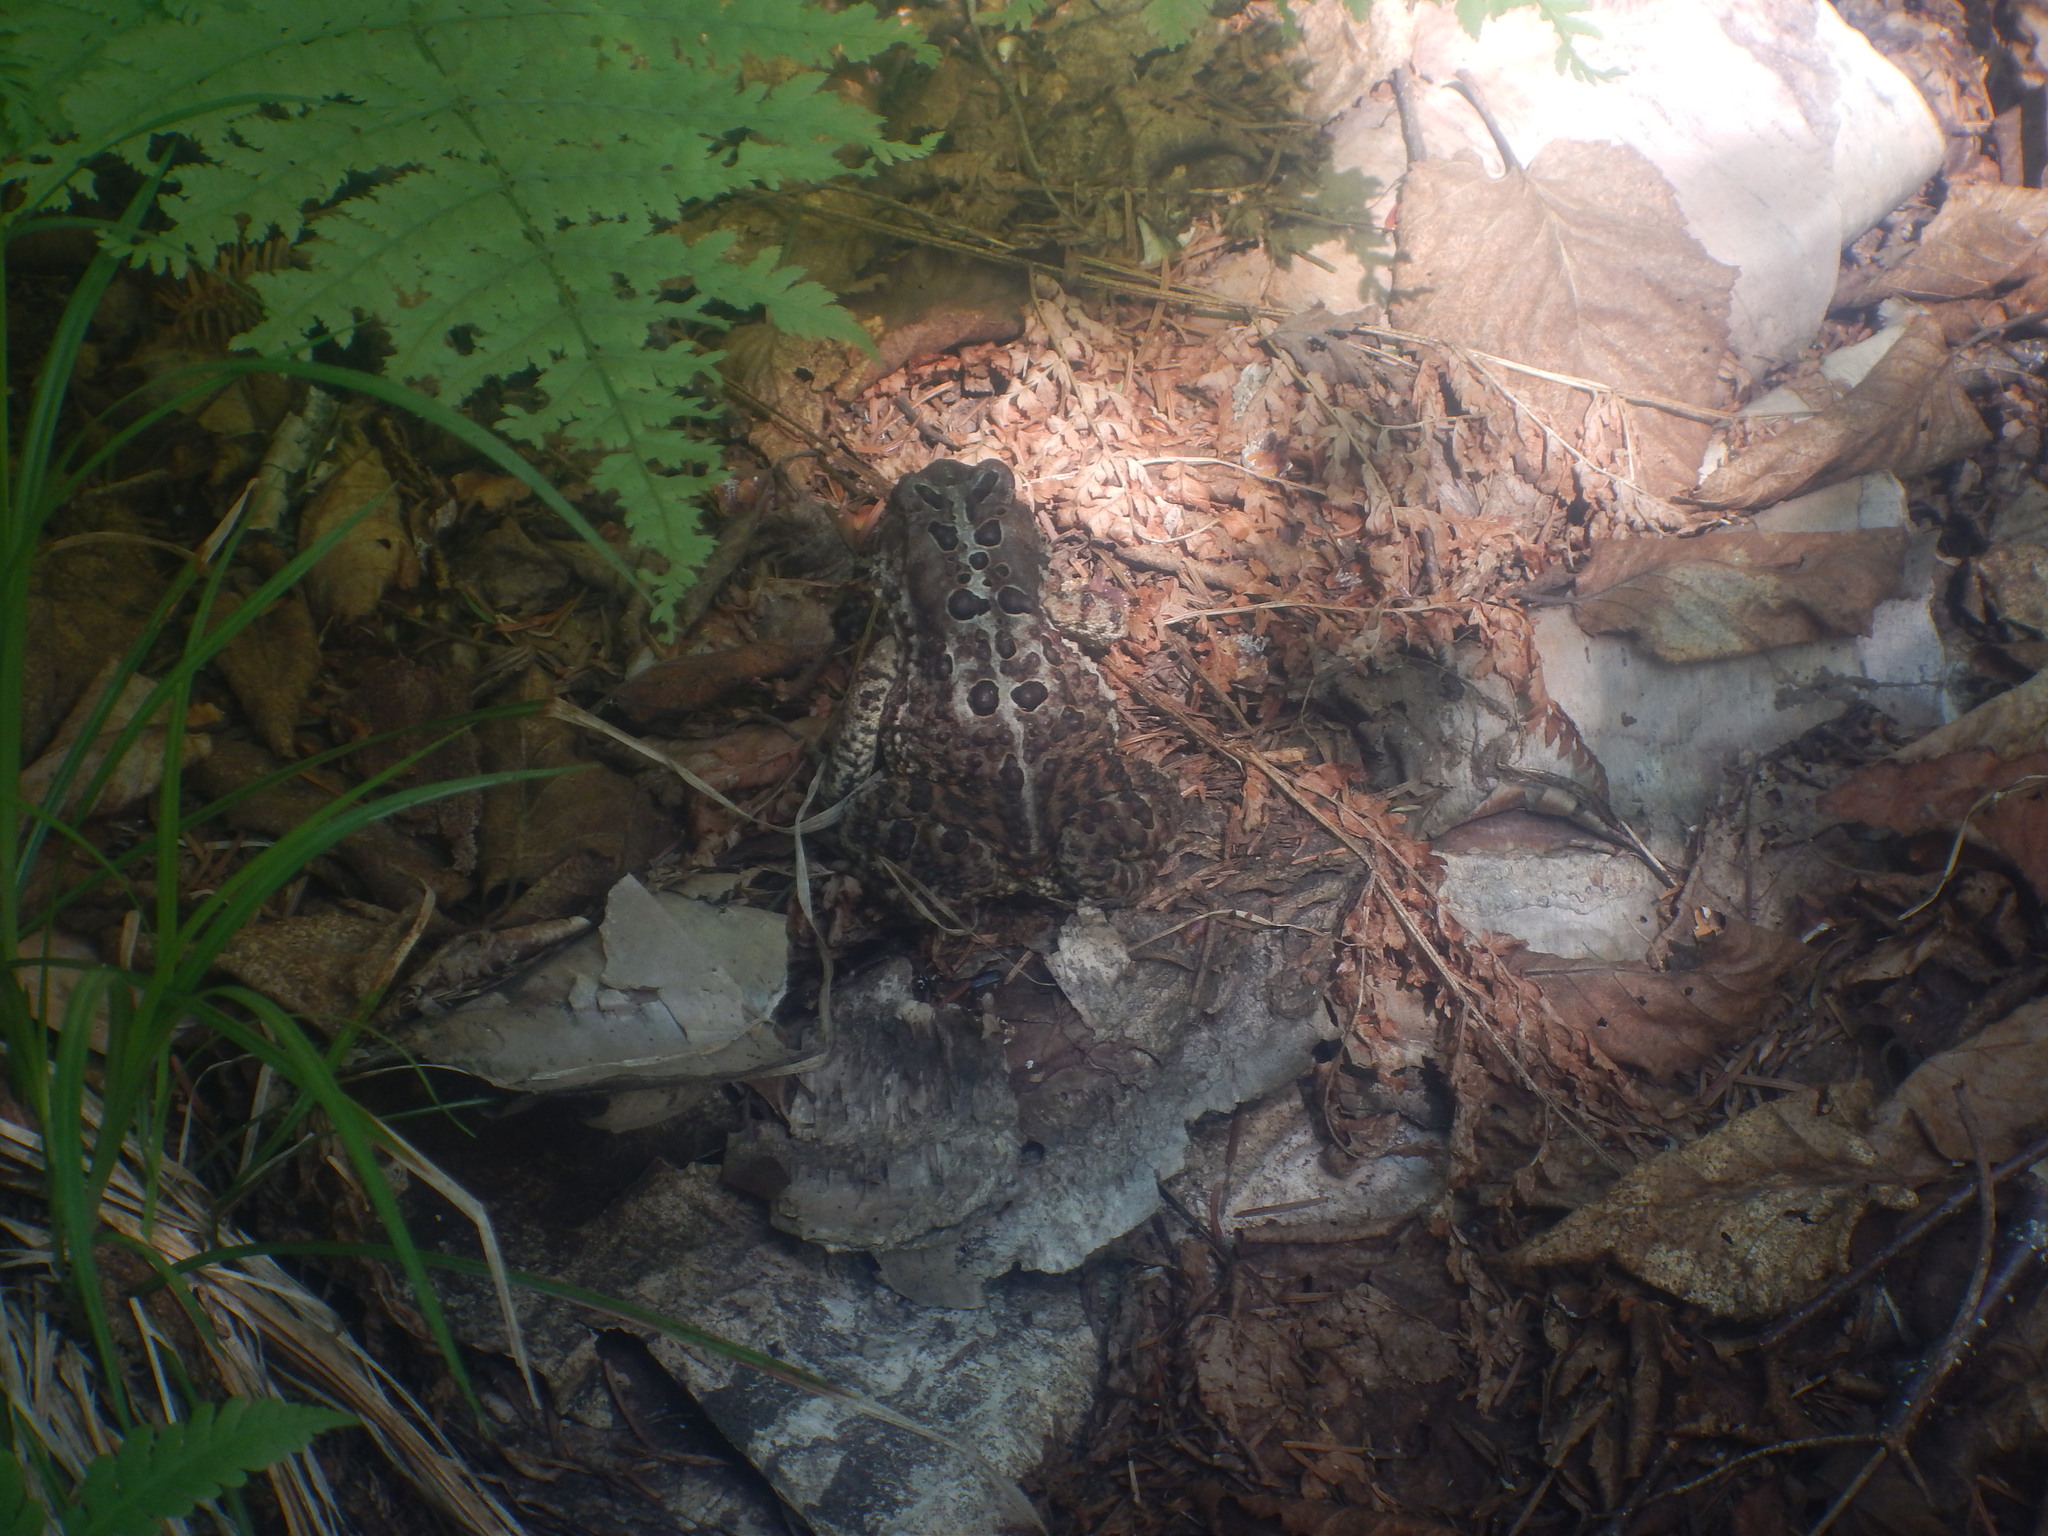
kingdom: Animalia
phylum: Chordata
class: Amphibia
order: Anura
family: Bufonidae
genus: Anaxyrus
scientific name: Anaxyrus americanus
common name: American toad
